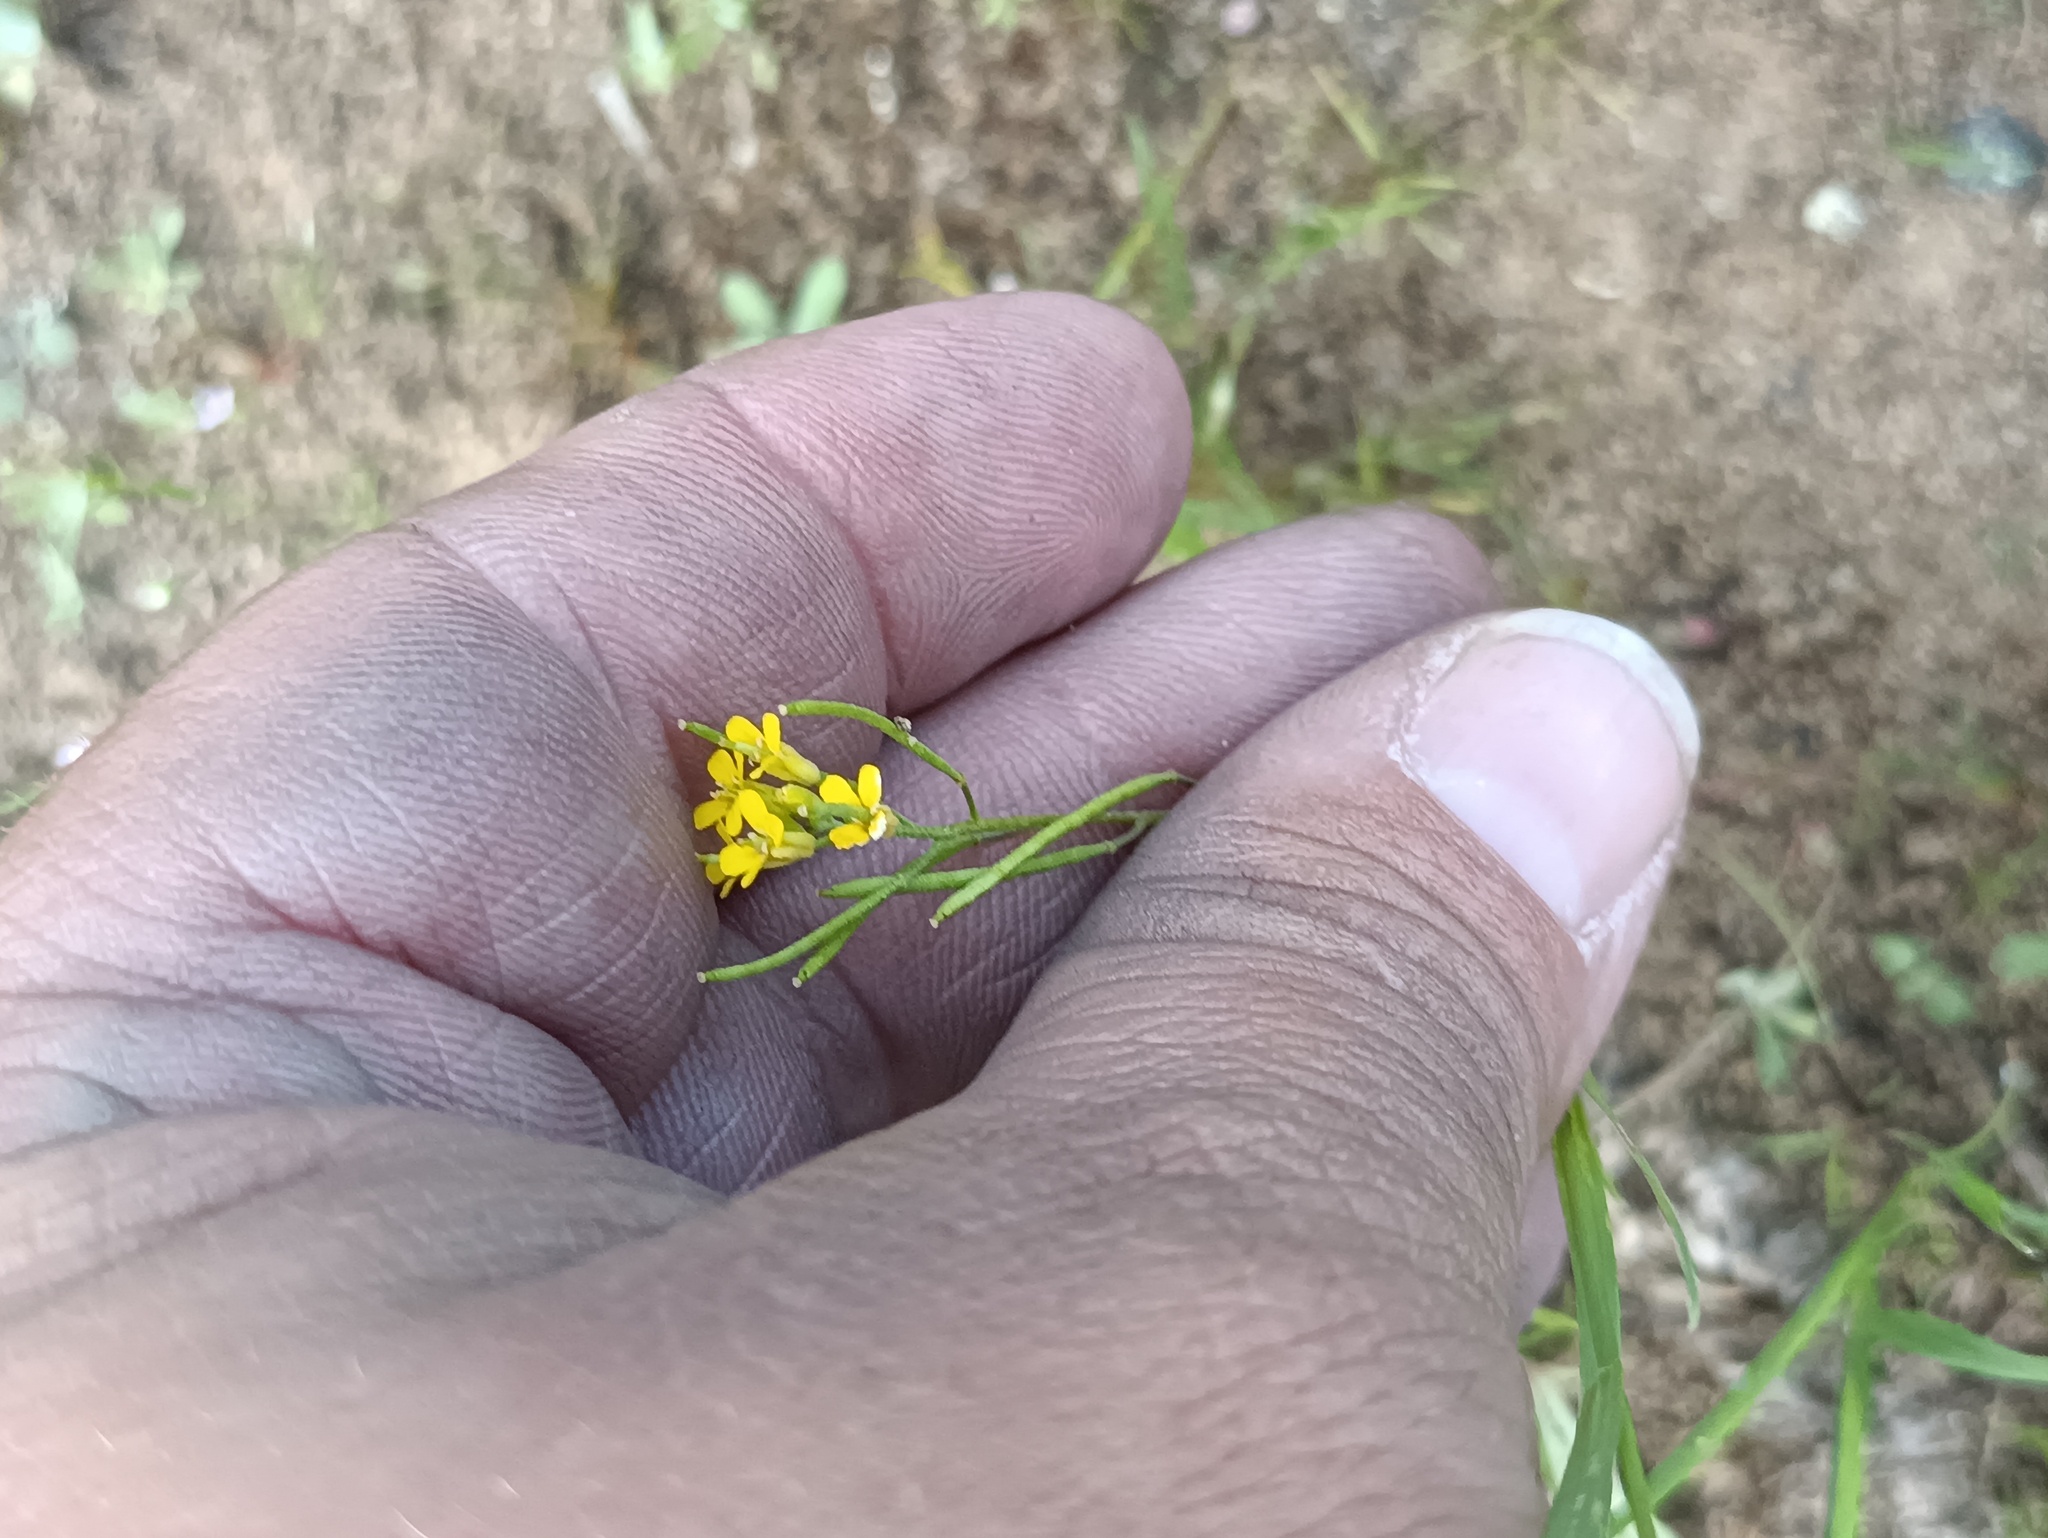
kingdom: Plantae
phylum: Tracheophyta
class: Magnoliopsida
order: Brassicales
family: Brassicaceae
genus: Erysimum
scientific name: Erysimum cheiranthoides
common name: Treacle mustard
